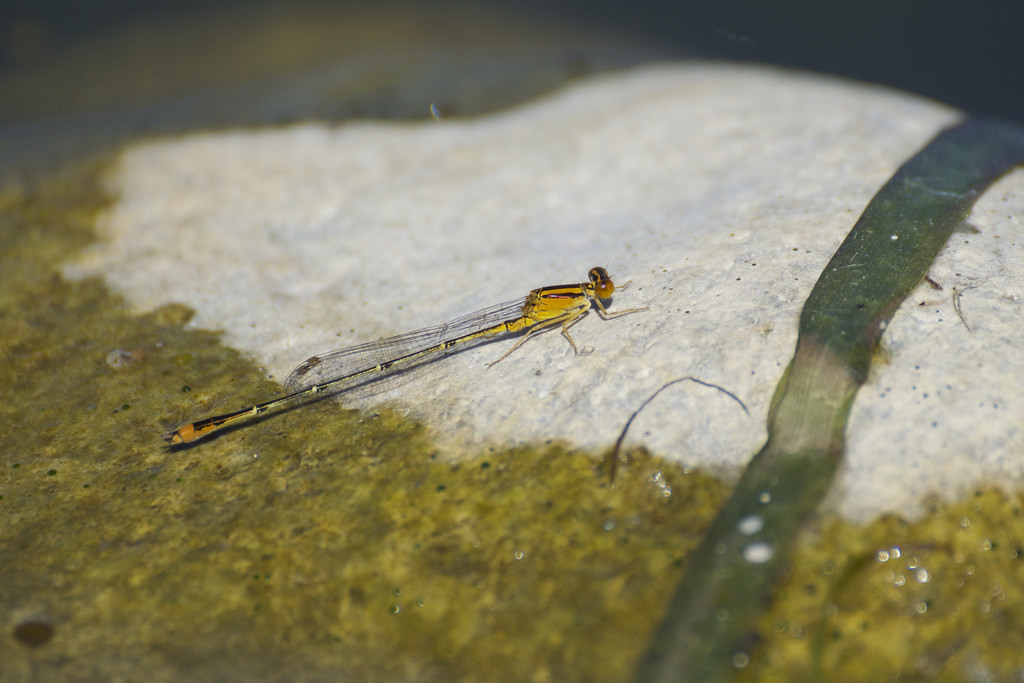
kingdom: Animalia
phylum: Arthropoda
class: Insecta
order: Odonata
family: Coenagrionidae
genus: Enallagma
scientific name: Enallagma signatum
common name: Orange bluet
